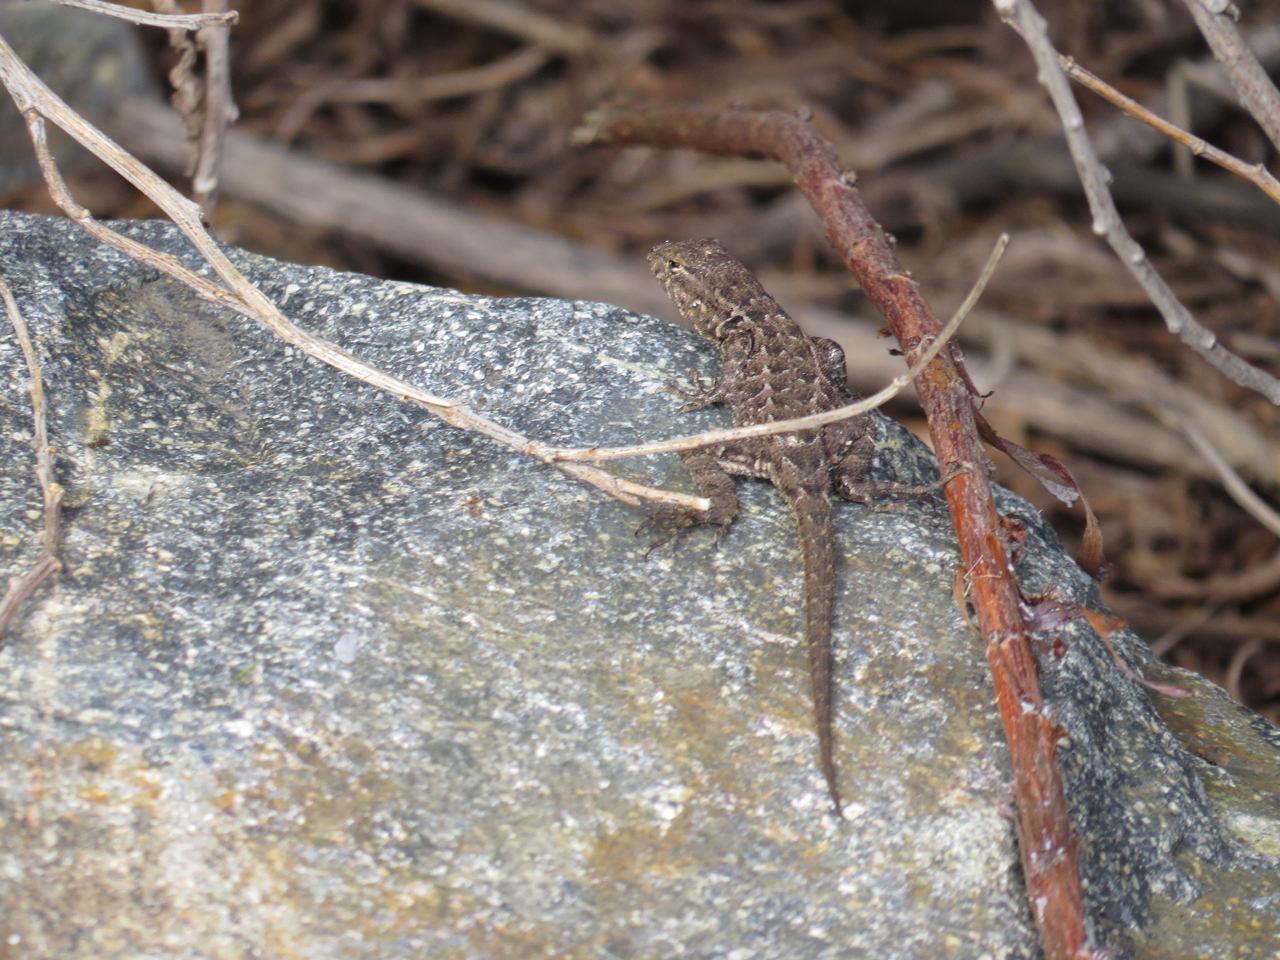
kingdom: Animalia
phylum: Chordata
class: Squamata
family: Phrynosomatidae
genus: Uta
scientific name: Uta stansburiana
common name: Side-blotched lizard
